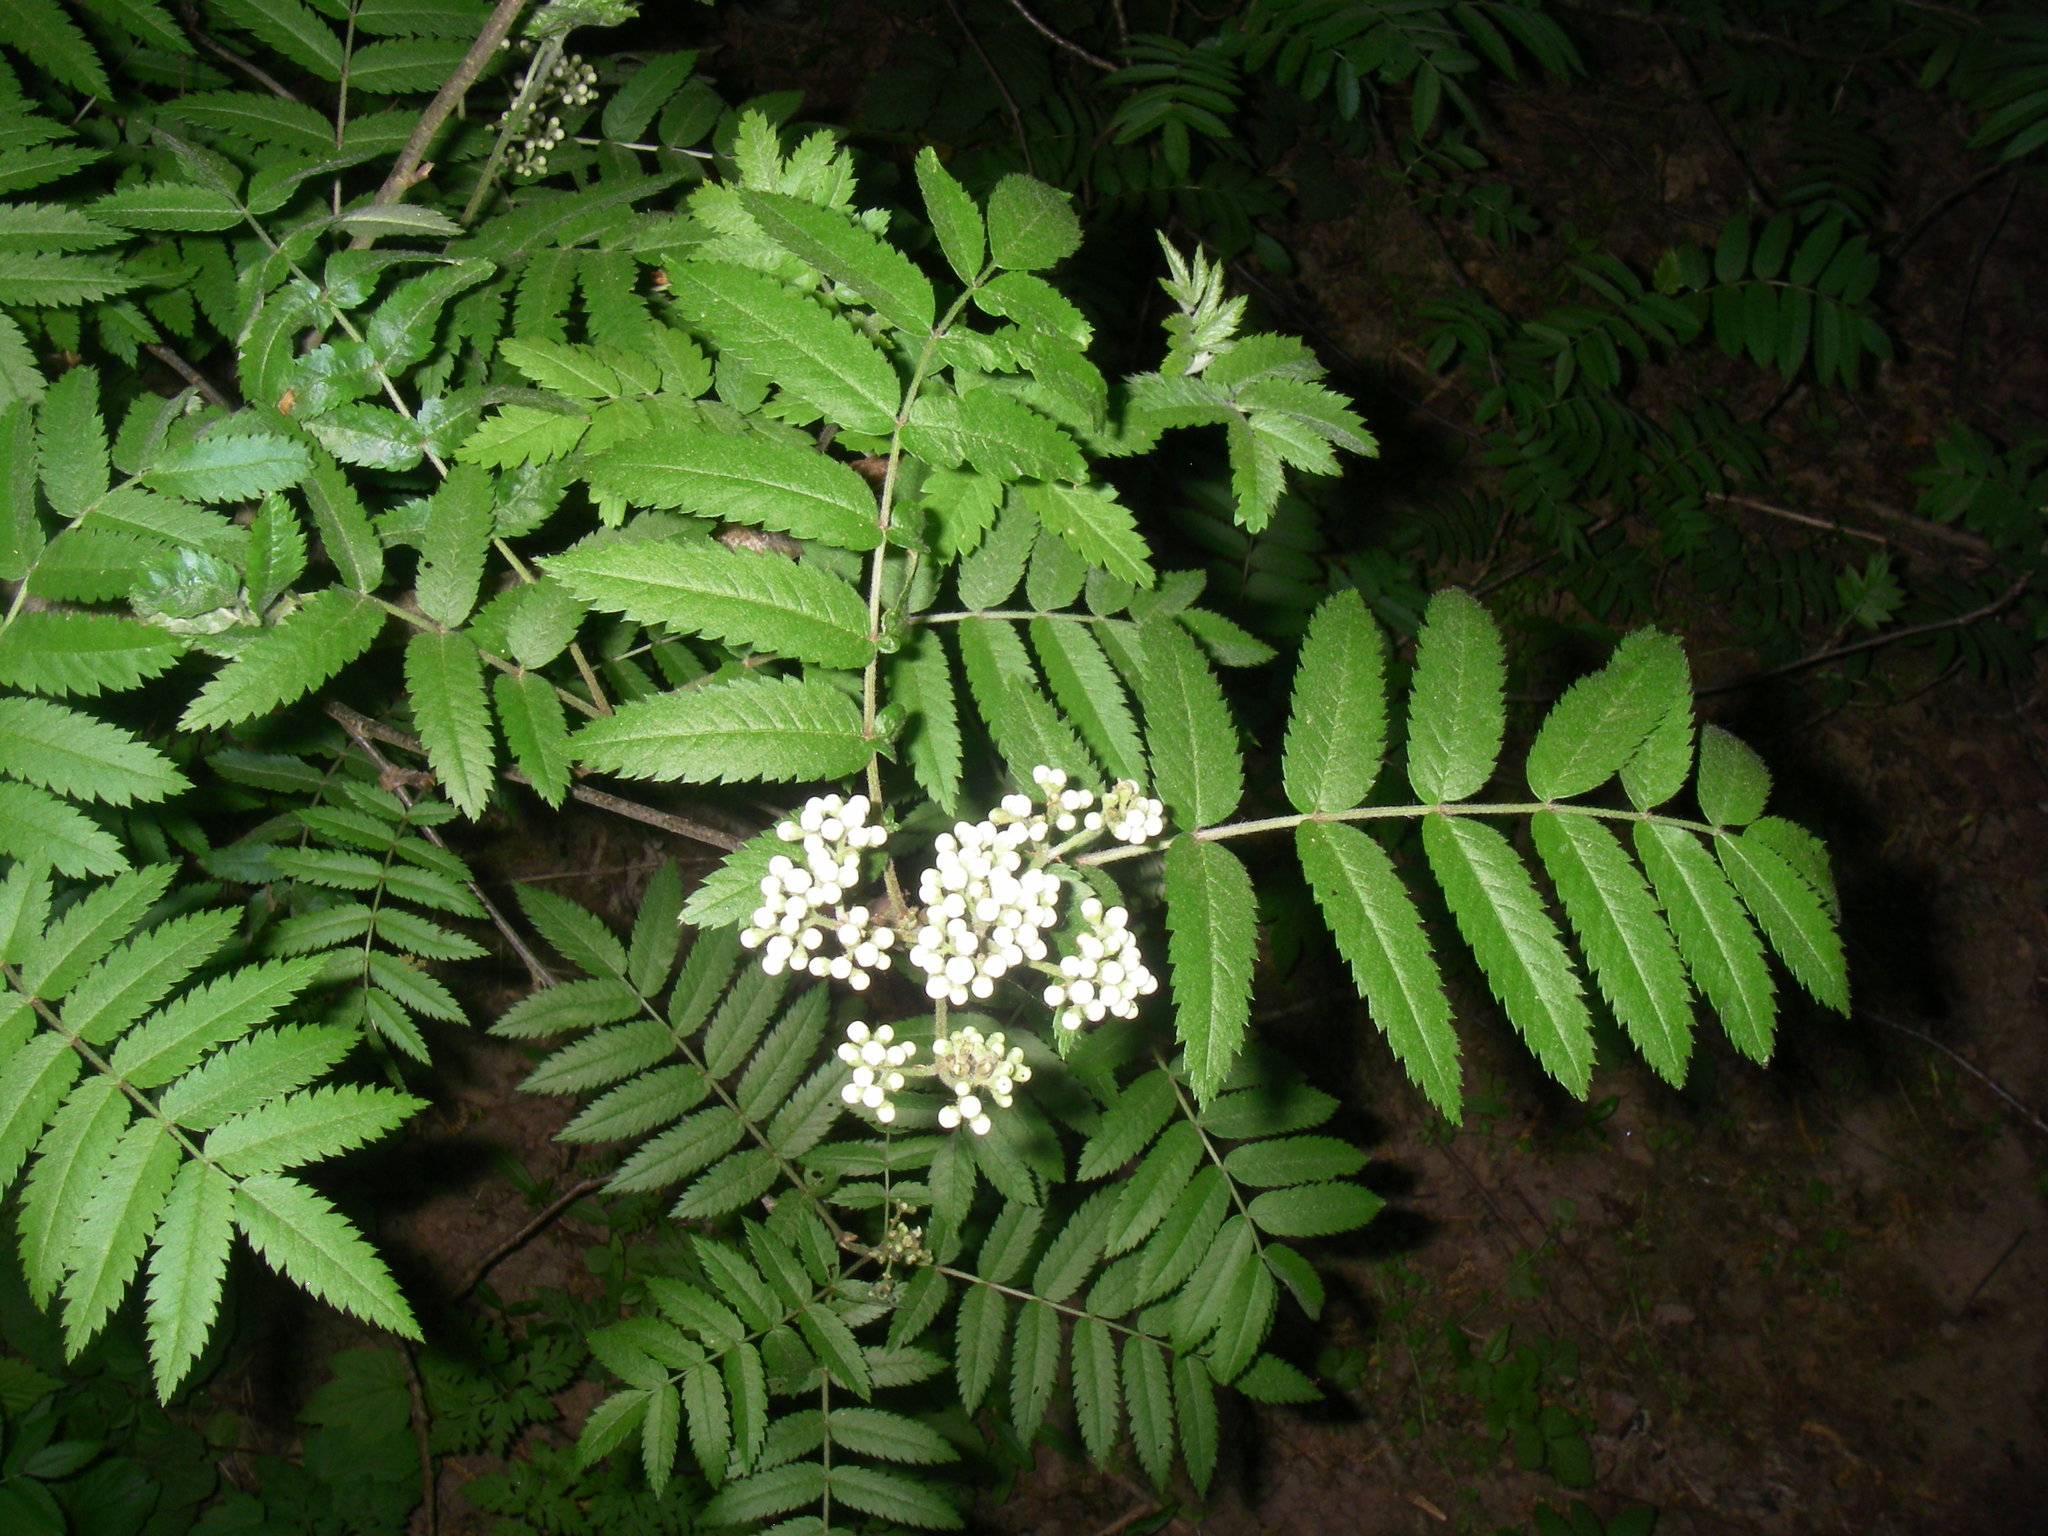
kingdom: Plantae
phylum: Tracheophyta
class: Magnoliopsida
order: Rosales
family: Rosaceae
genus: Sorbus
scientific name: Sorbus aucuparia
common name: Rowan
